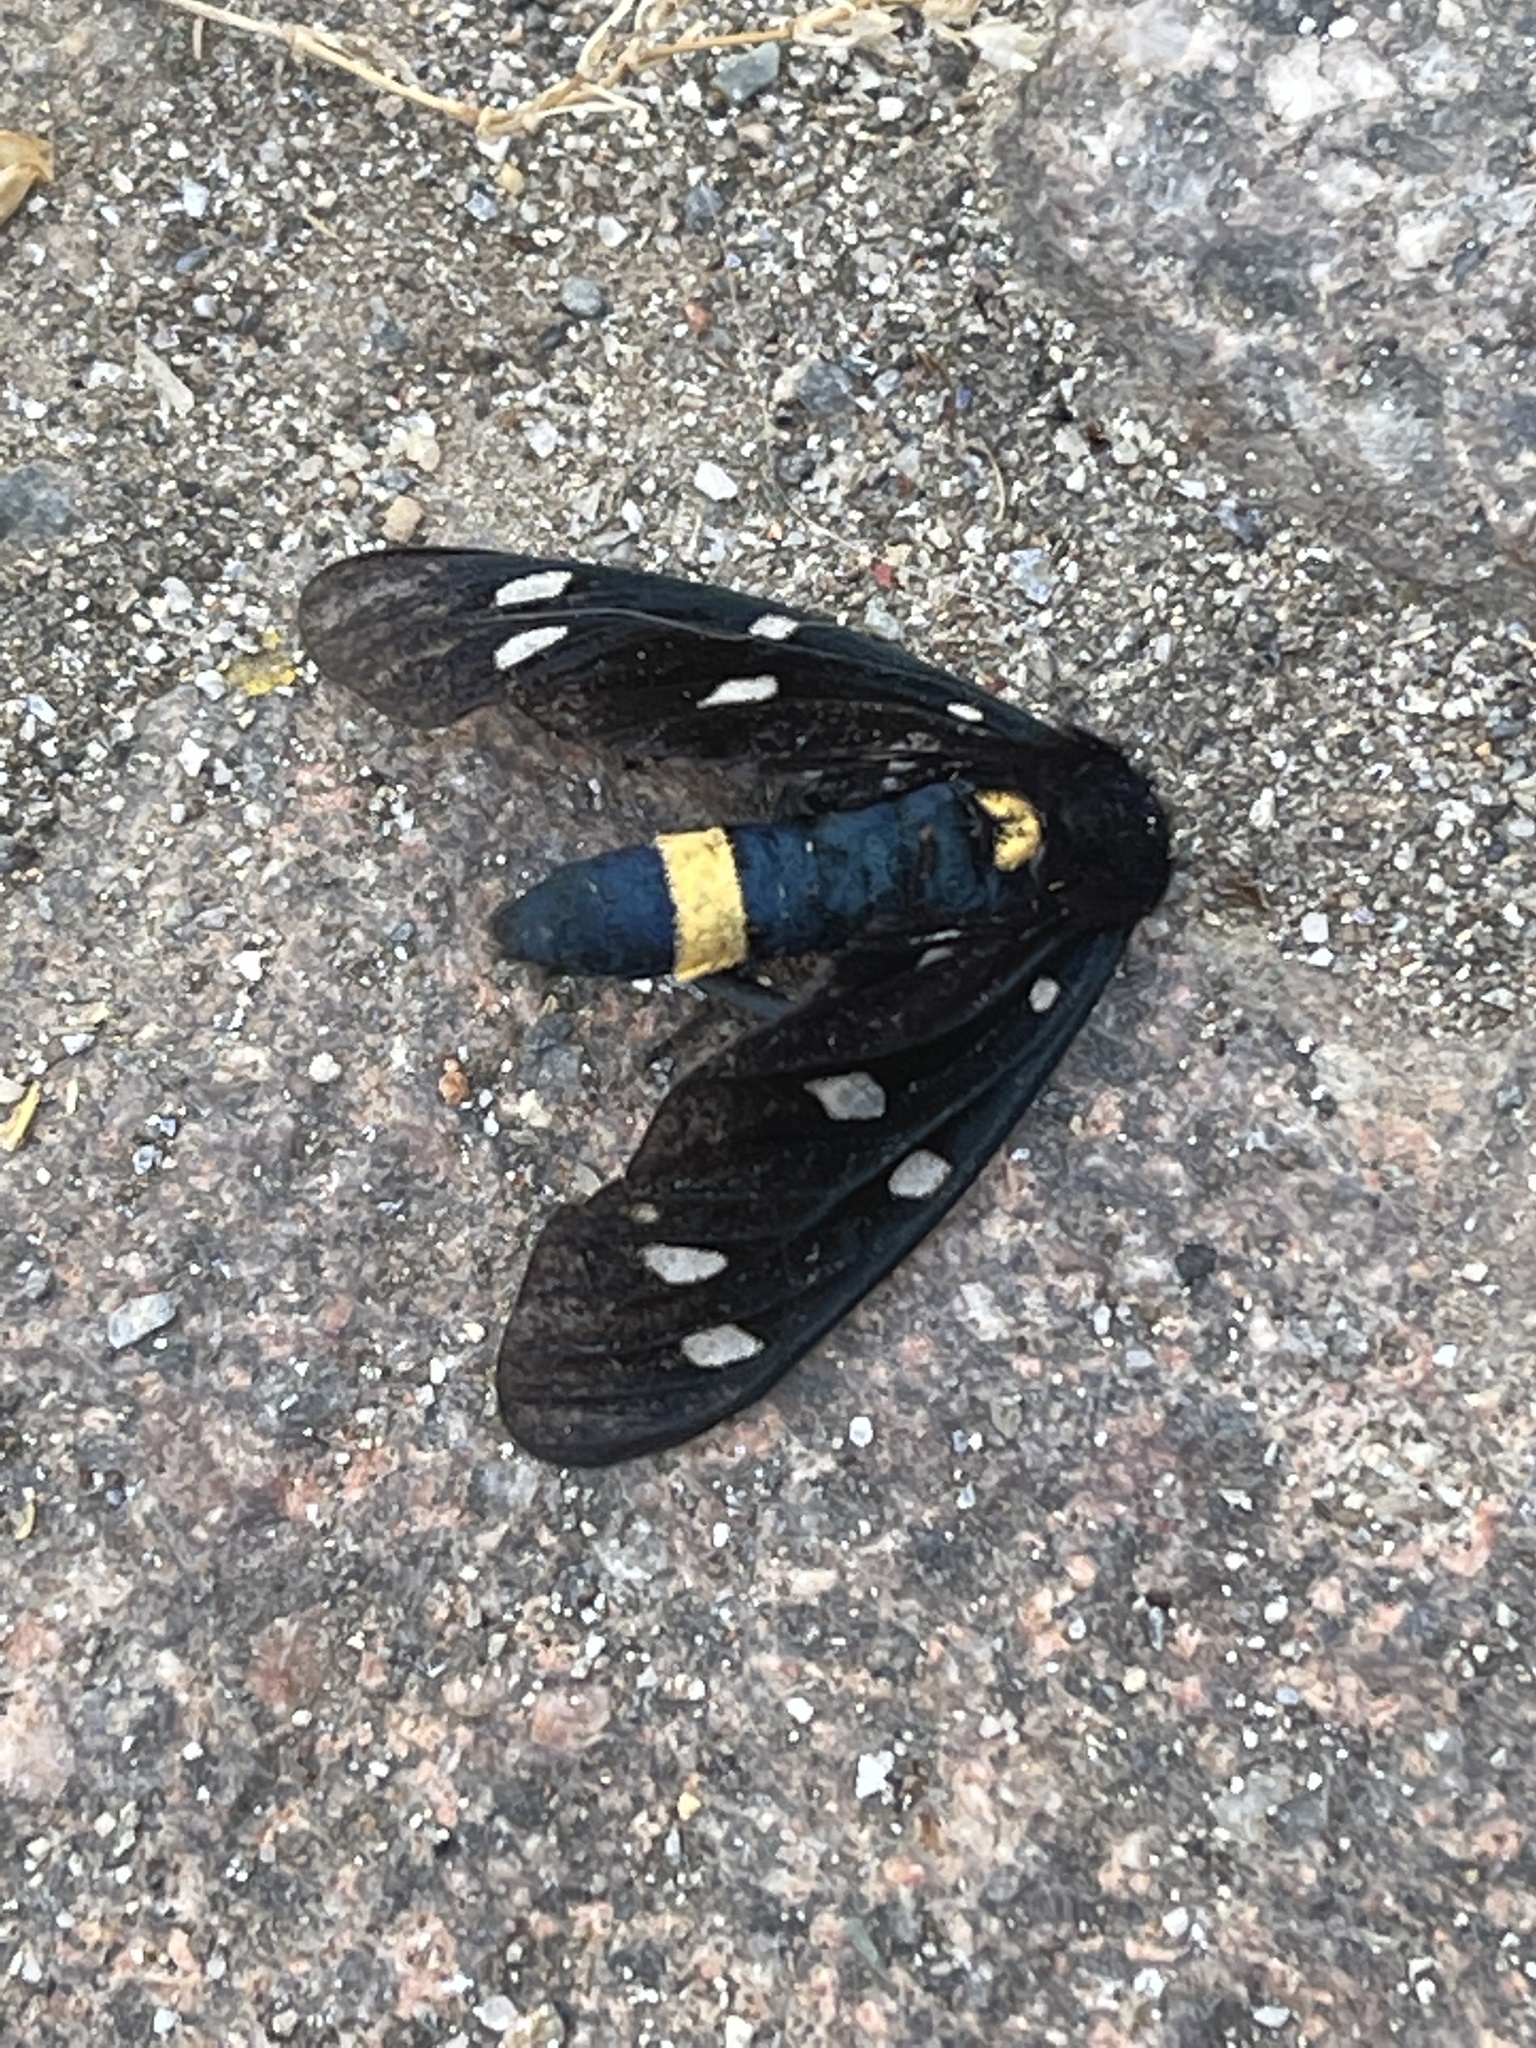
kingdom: Animalia
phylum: Arthropoda
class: Insecta
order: Lepidoptera
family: Erebidae
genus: Amata
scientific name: Amata ragazzii
